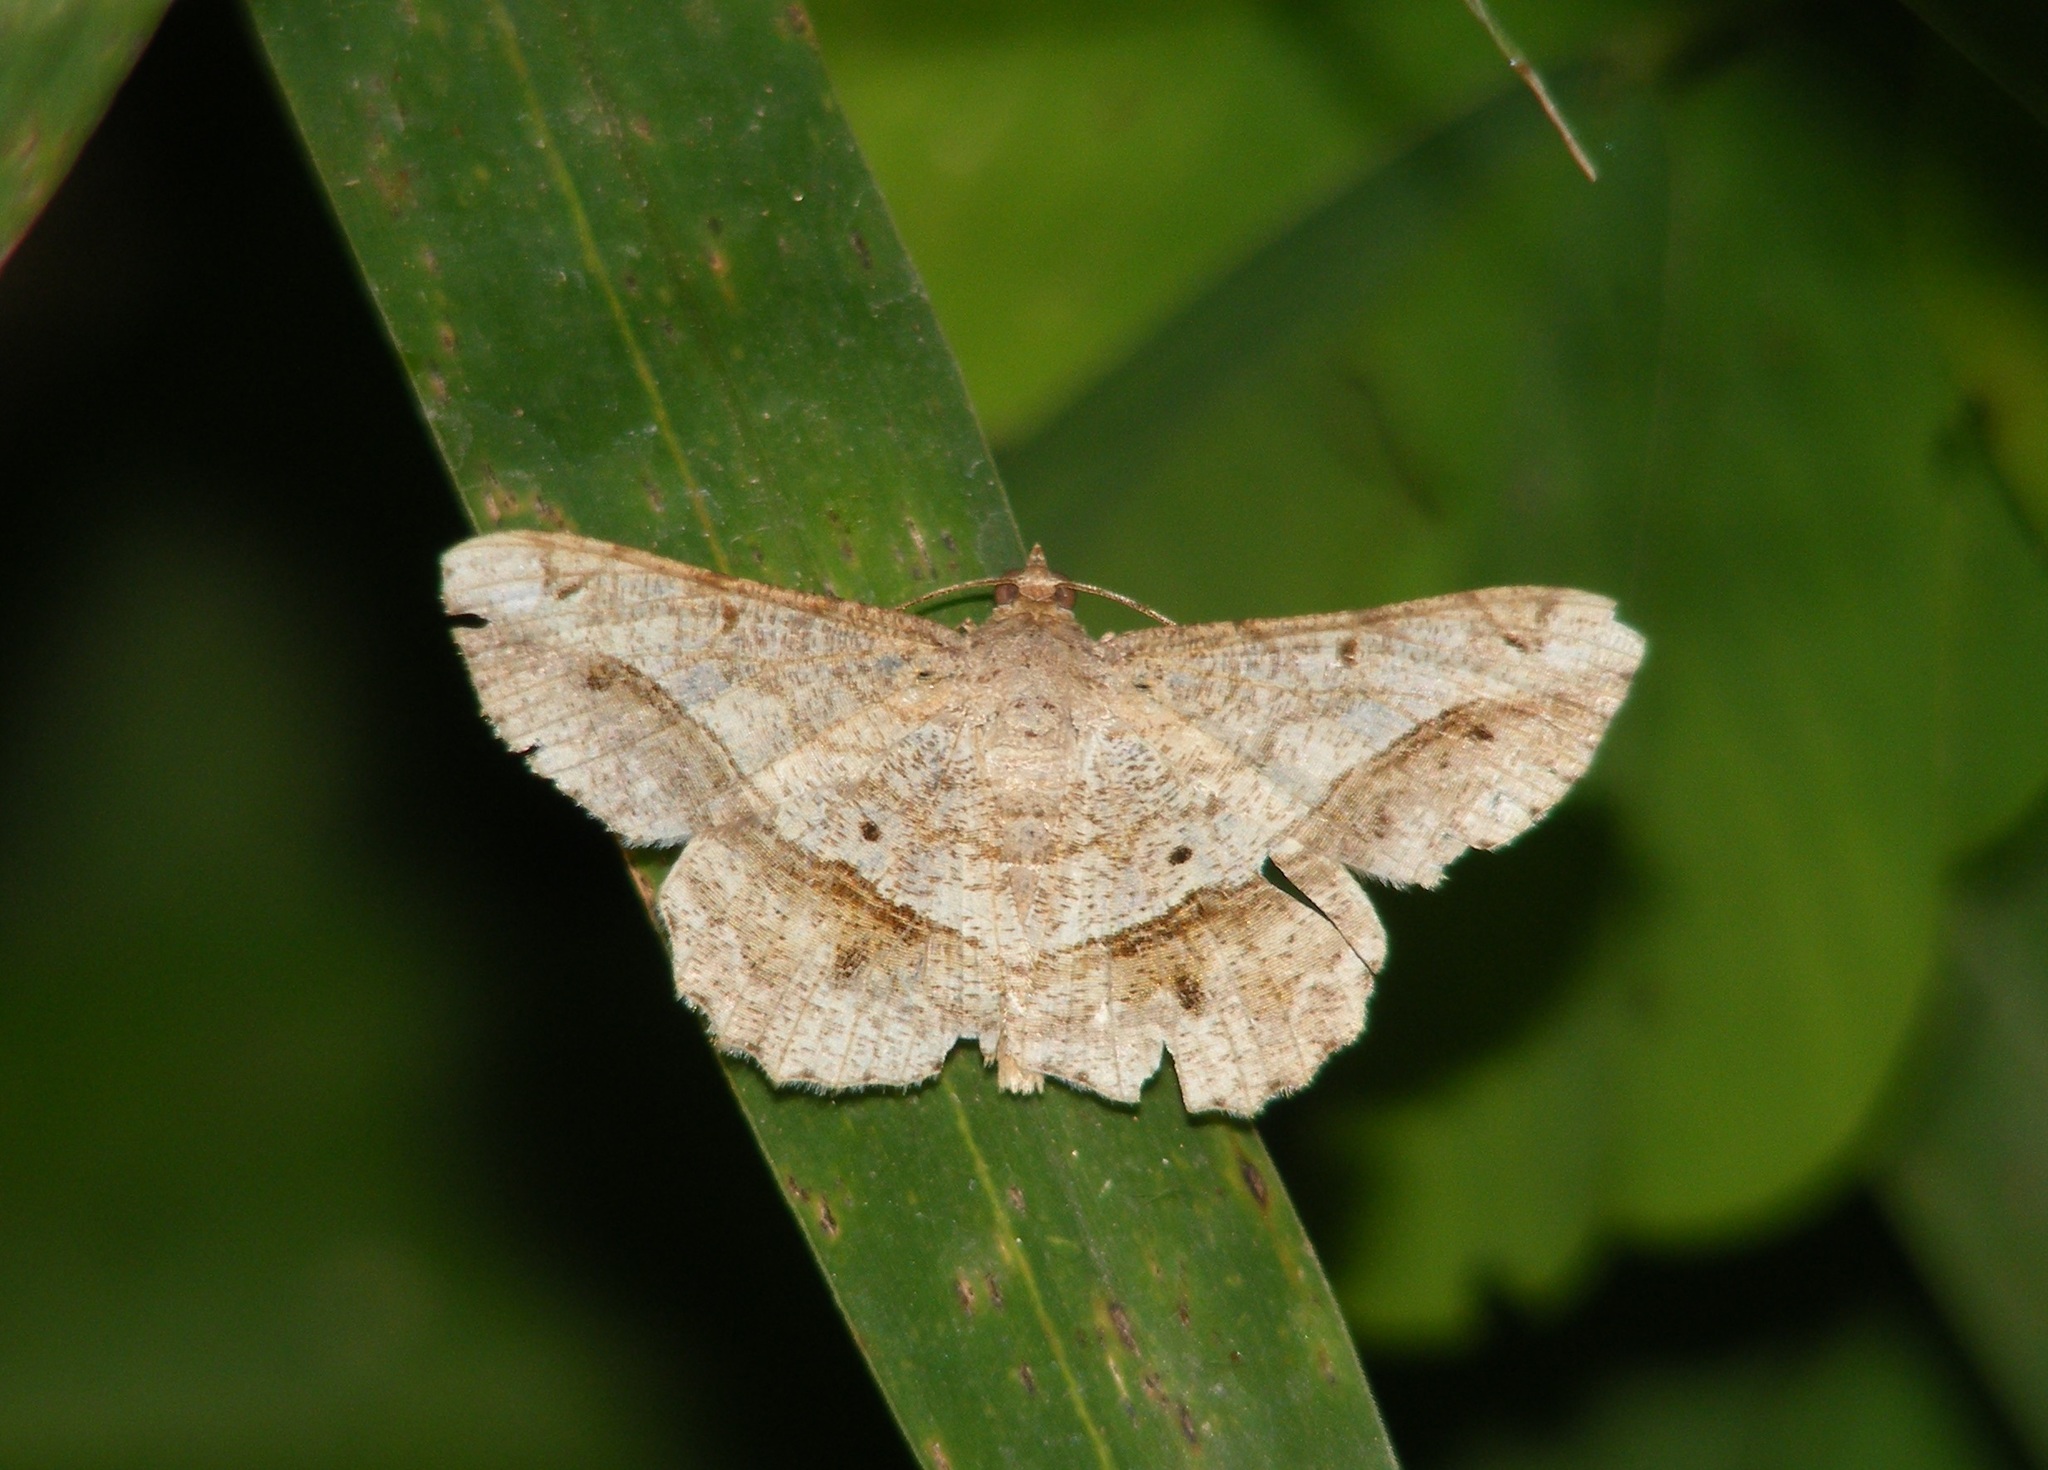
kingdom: Animalia
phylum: Arthropoda
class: Insecta
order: Lepidoptera
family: Geometridae
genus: Chiasmia
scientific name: Chiasmia emersaria
